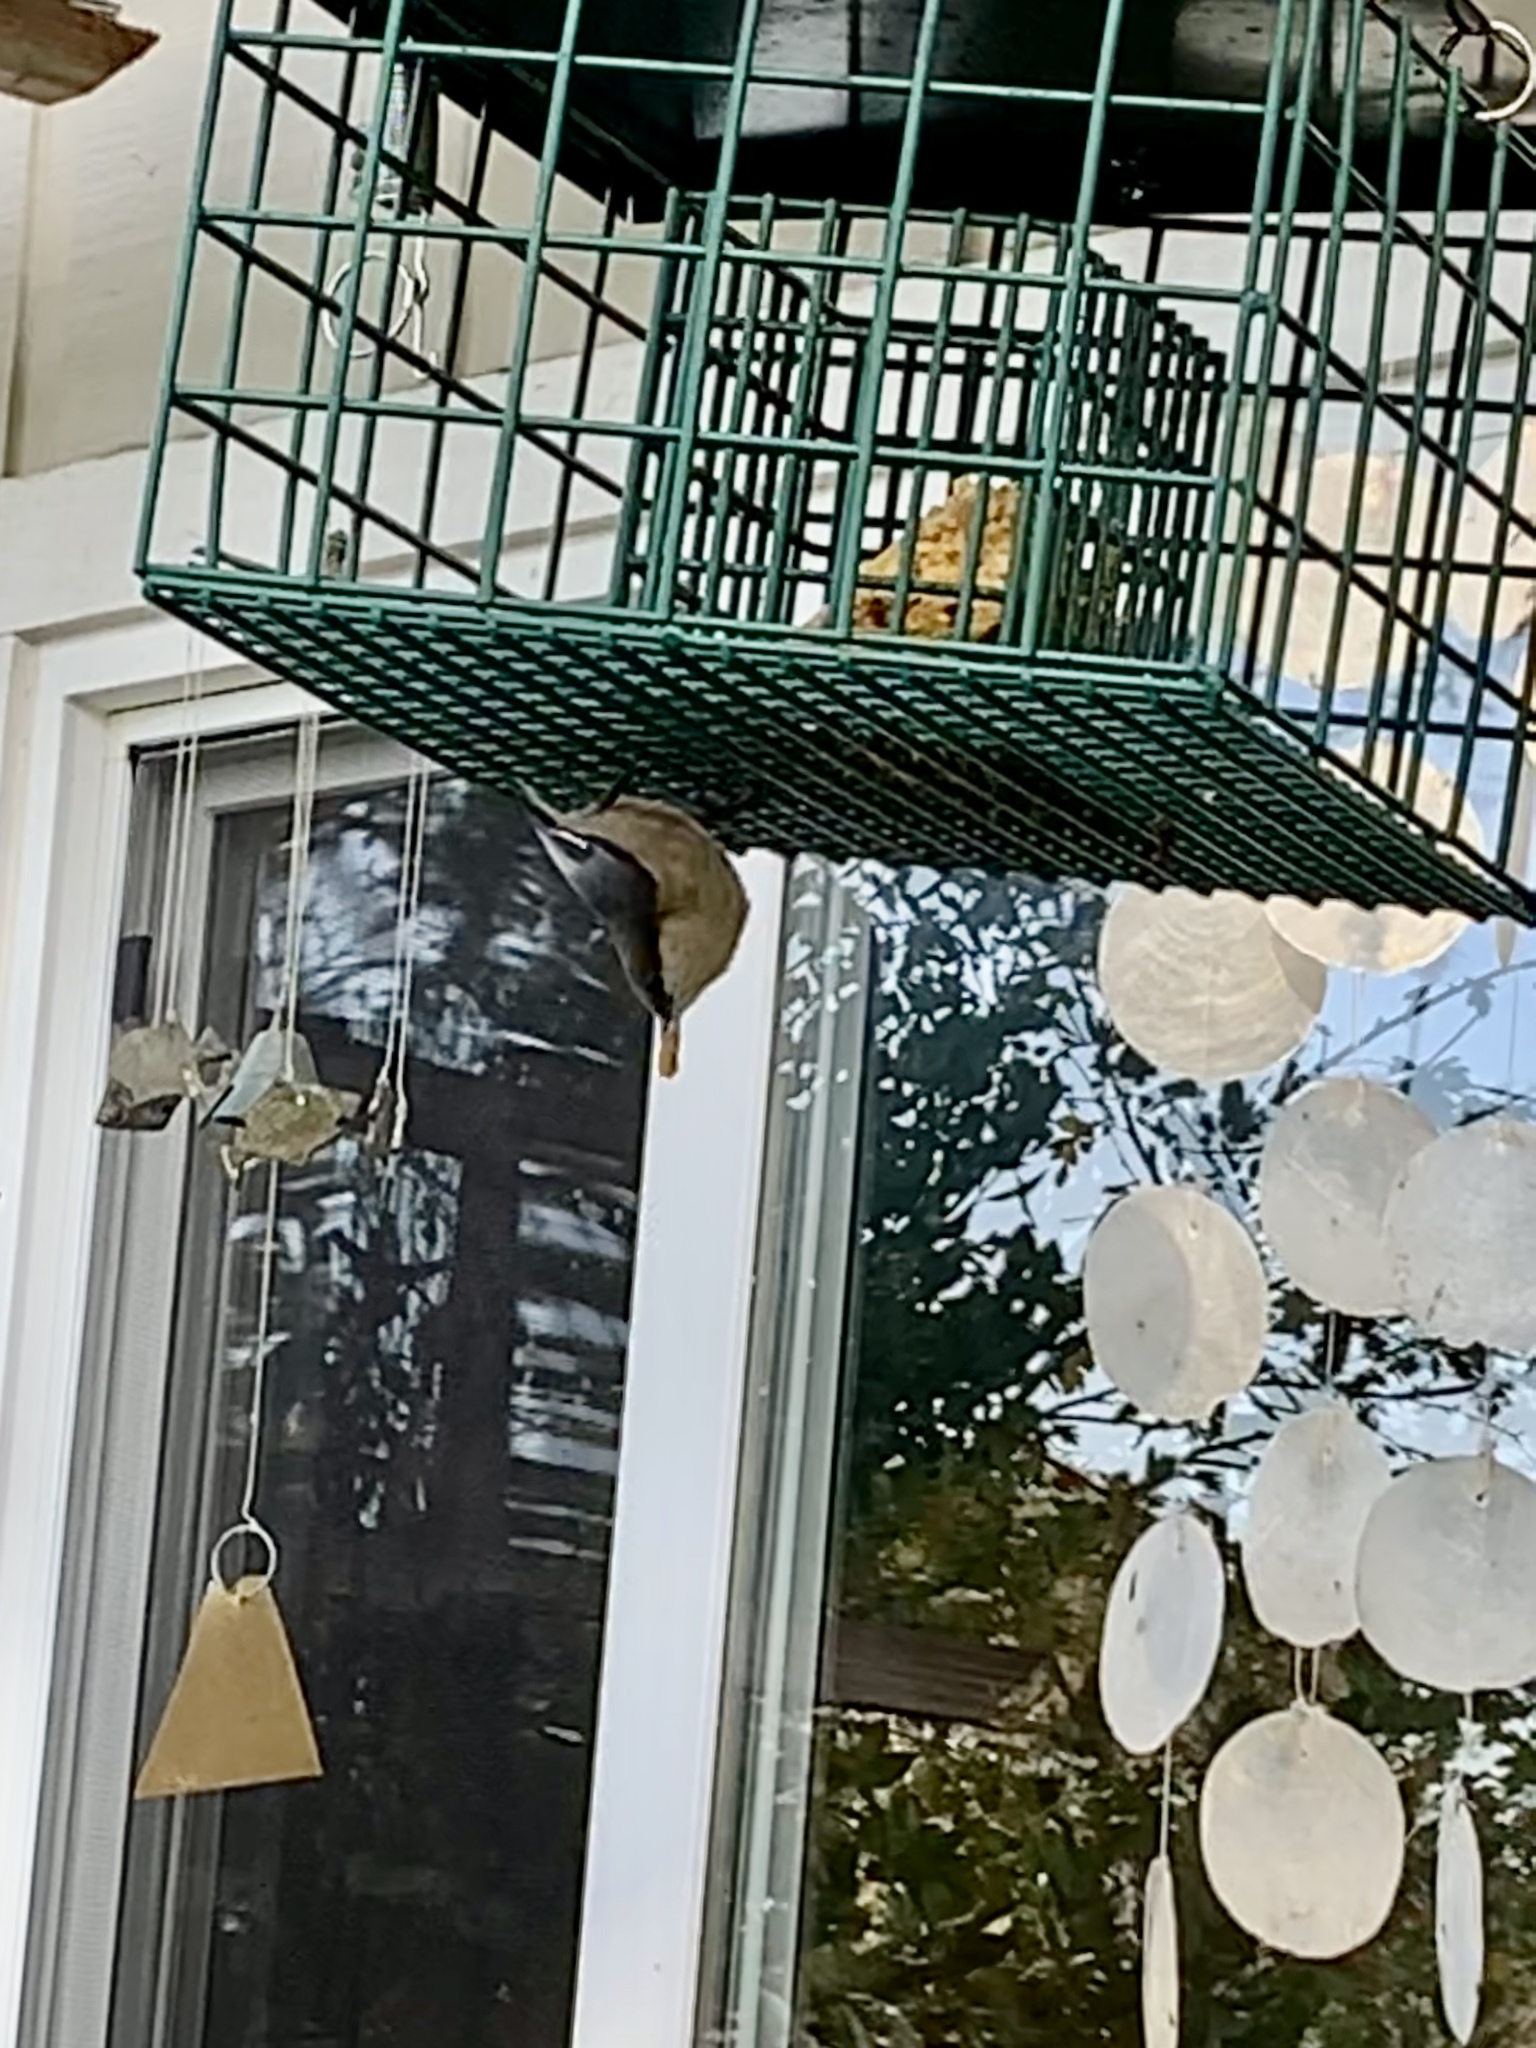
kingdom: Animalia
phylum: Chordata
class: Aves
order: Passeriformes
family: Sittidae
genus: Sitta
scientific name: Sitta pygmaea
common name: Pygmy nuthatch
